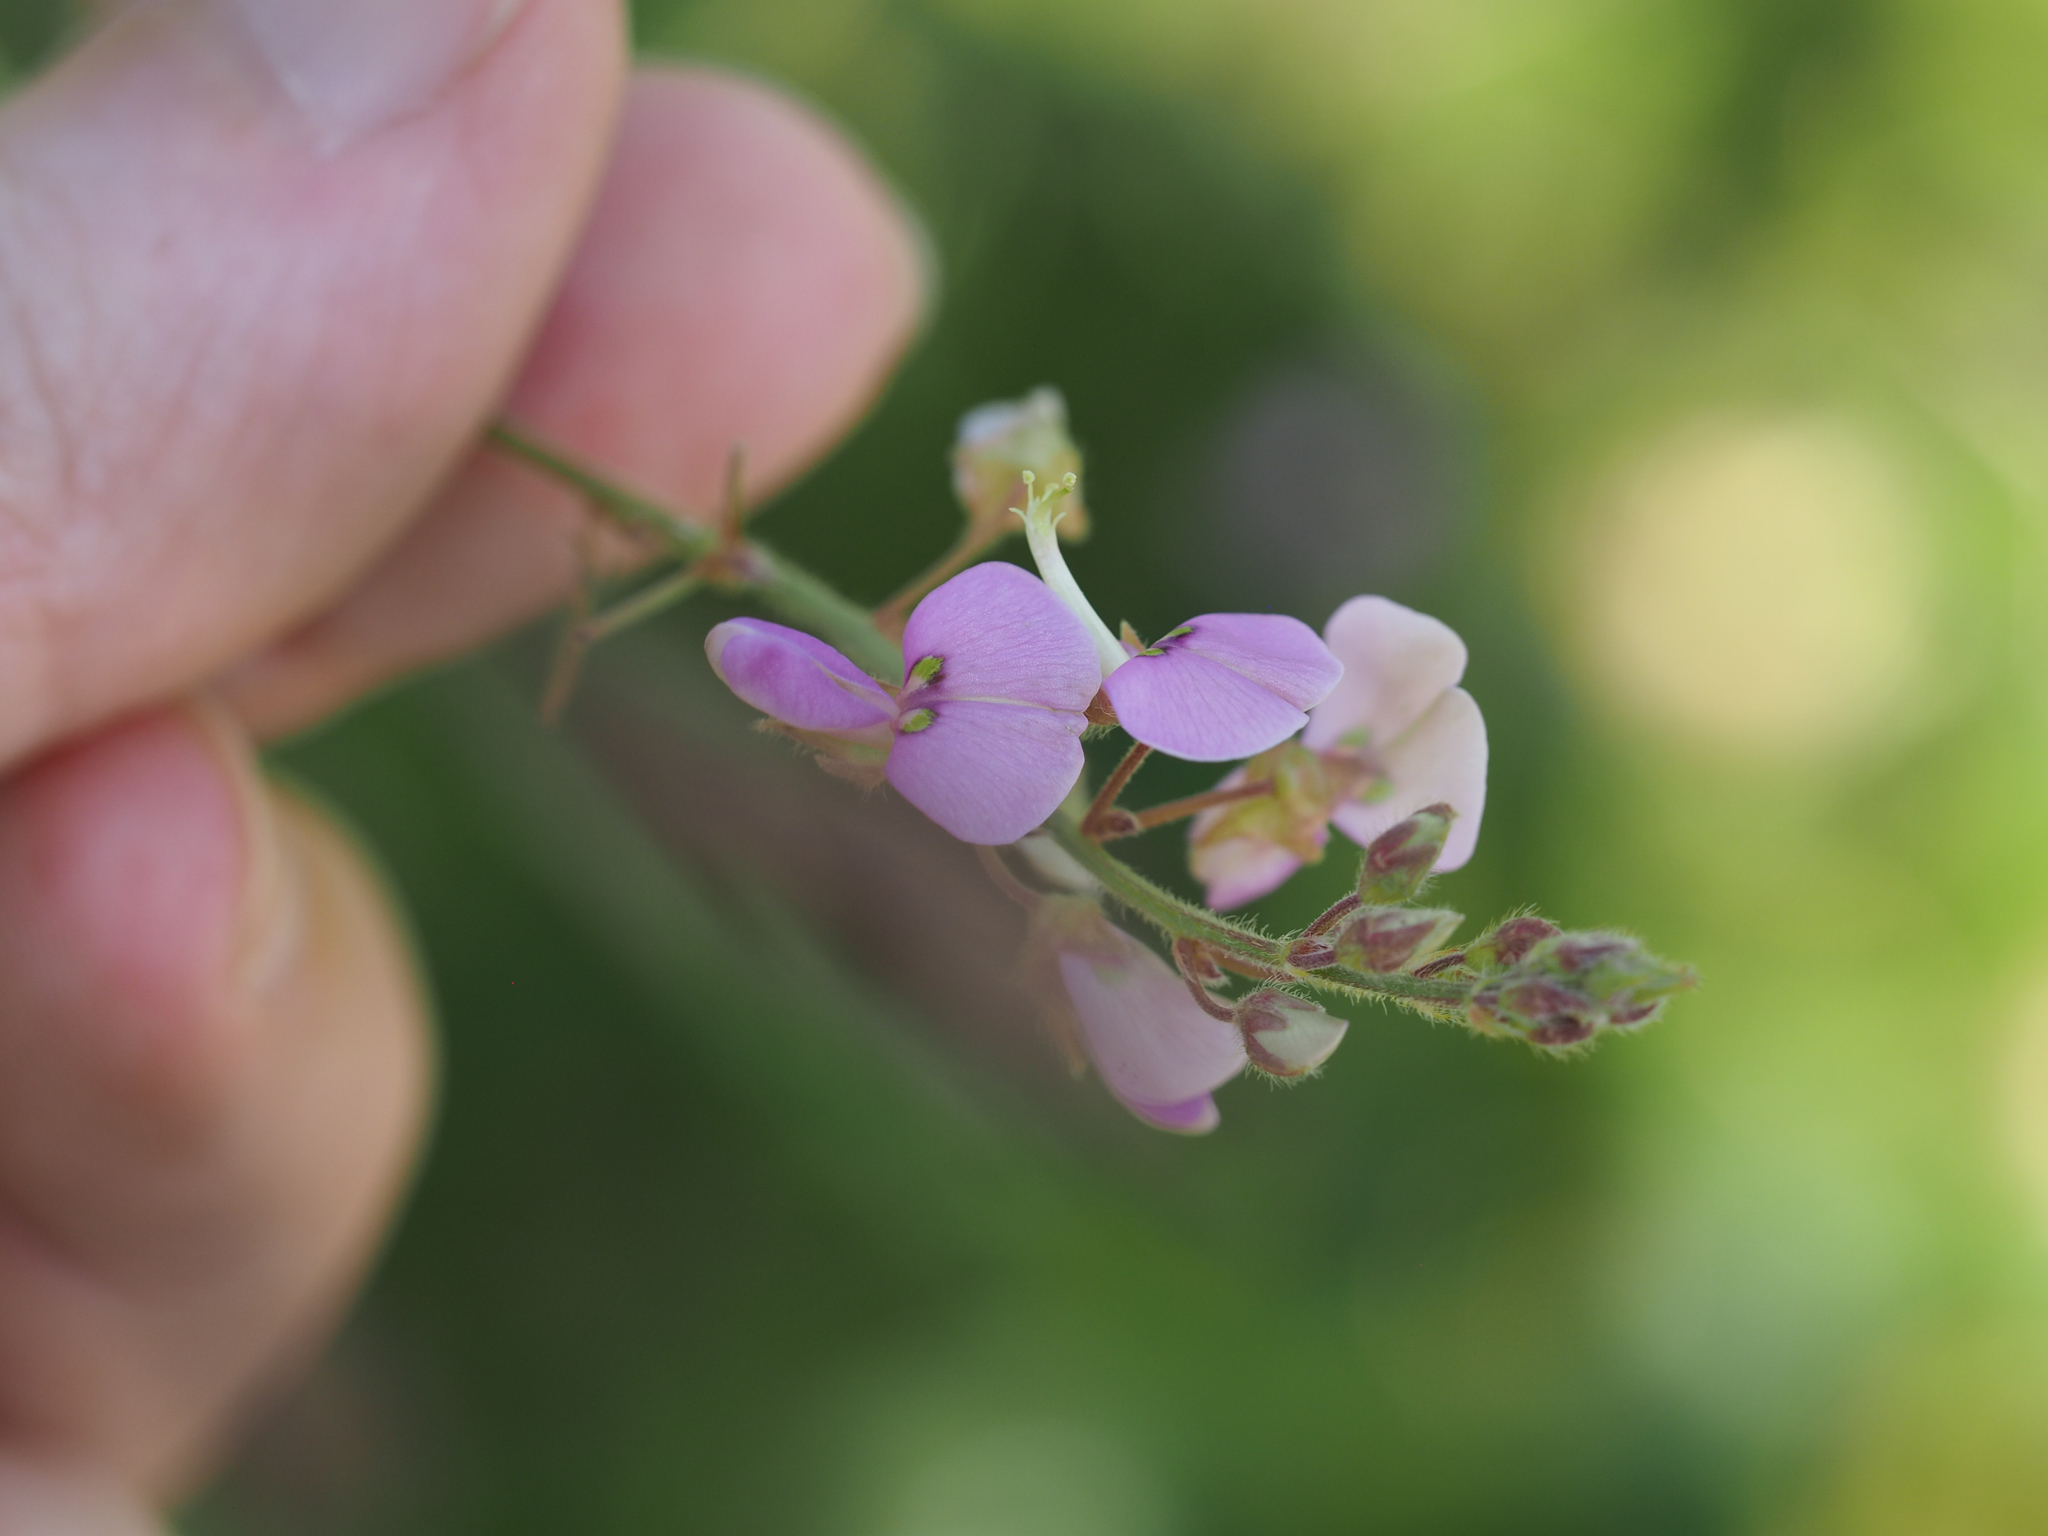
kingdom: Plantae
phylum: Tracheophyta
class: Magnoliopsida
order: Fabales
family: Fabaceae
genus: Desmodium
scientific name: Desmodium glabellum
